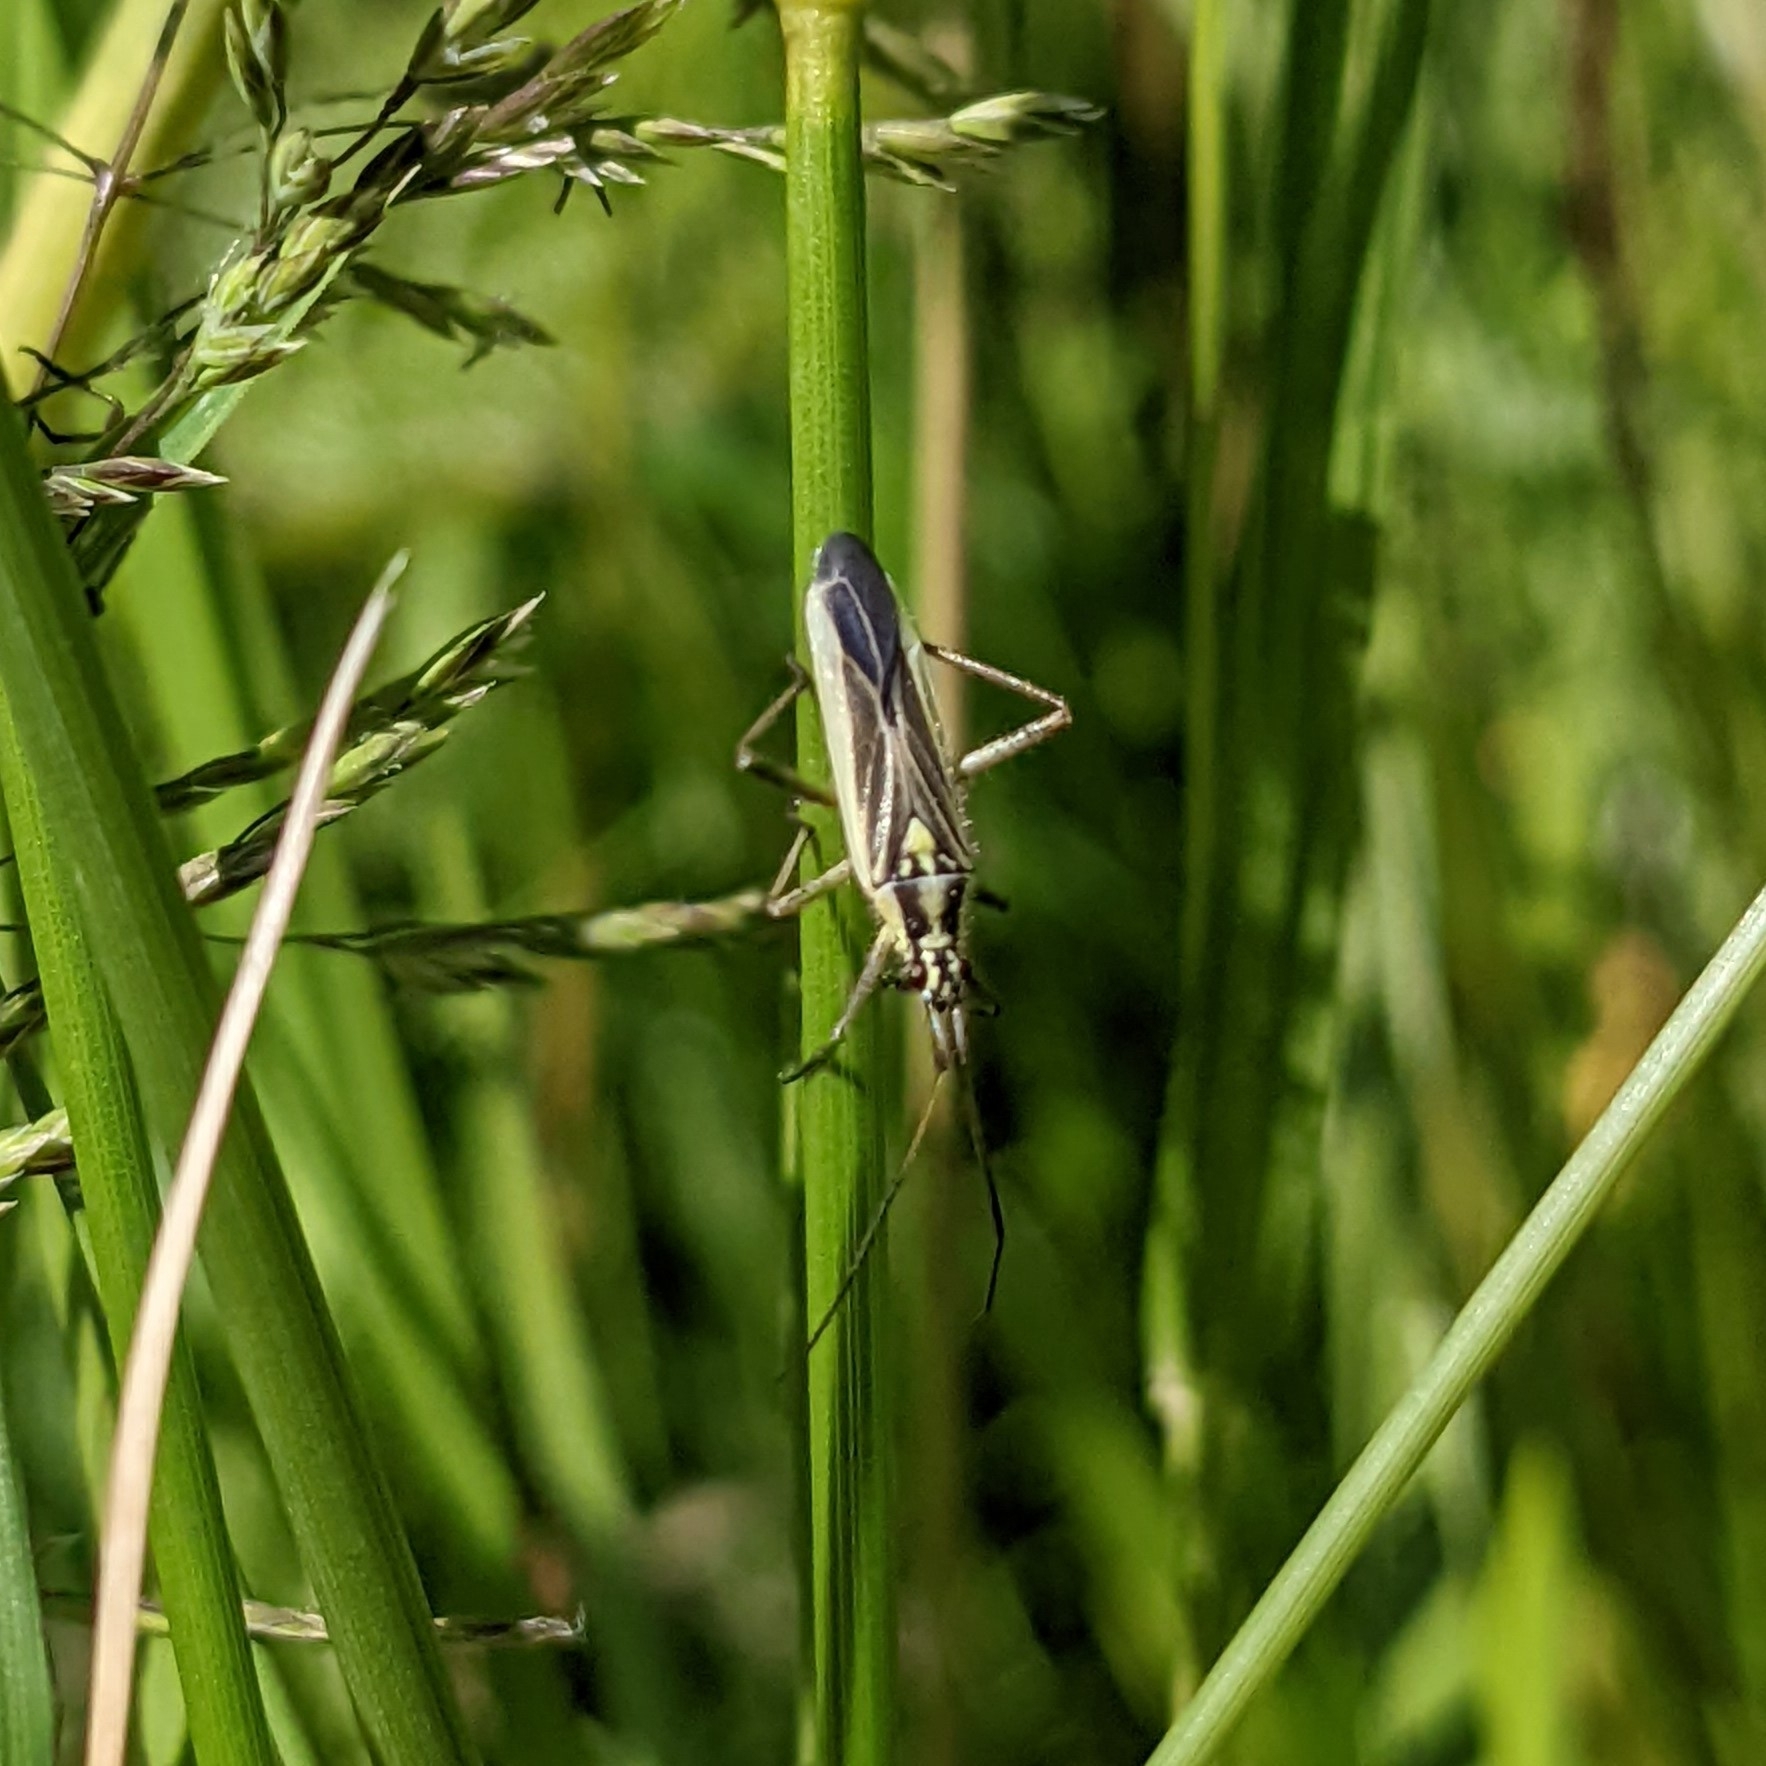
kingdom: Animalia
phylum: Arthropoda
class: Insecta
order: Hemiptera
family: Miridae
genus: Leptopterna
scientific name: Leptopterna dolabrata
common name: Meadow plant bug
